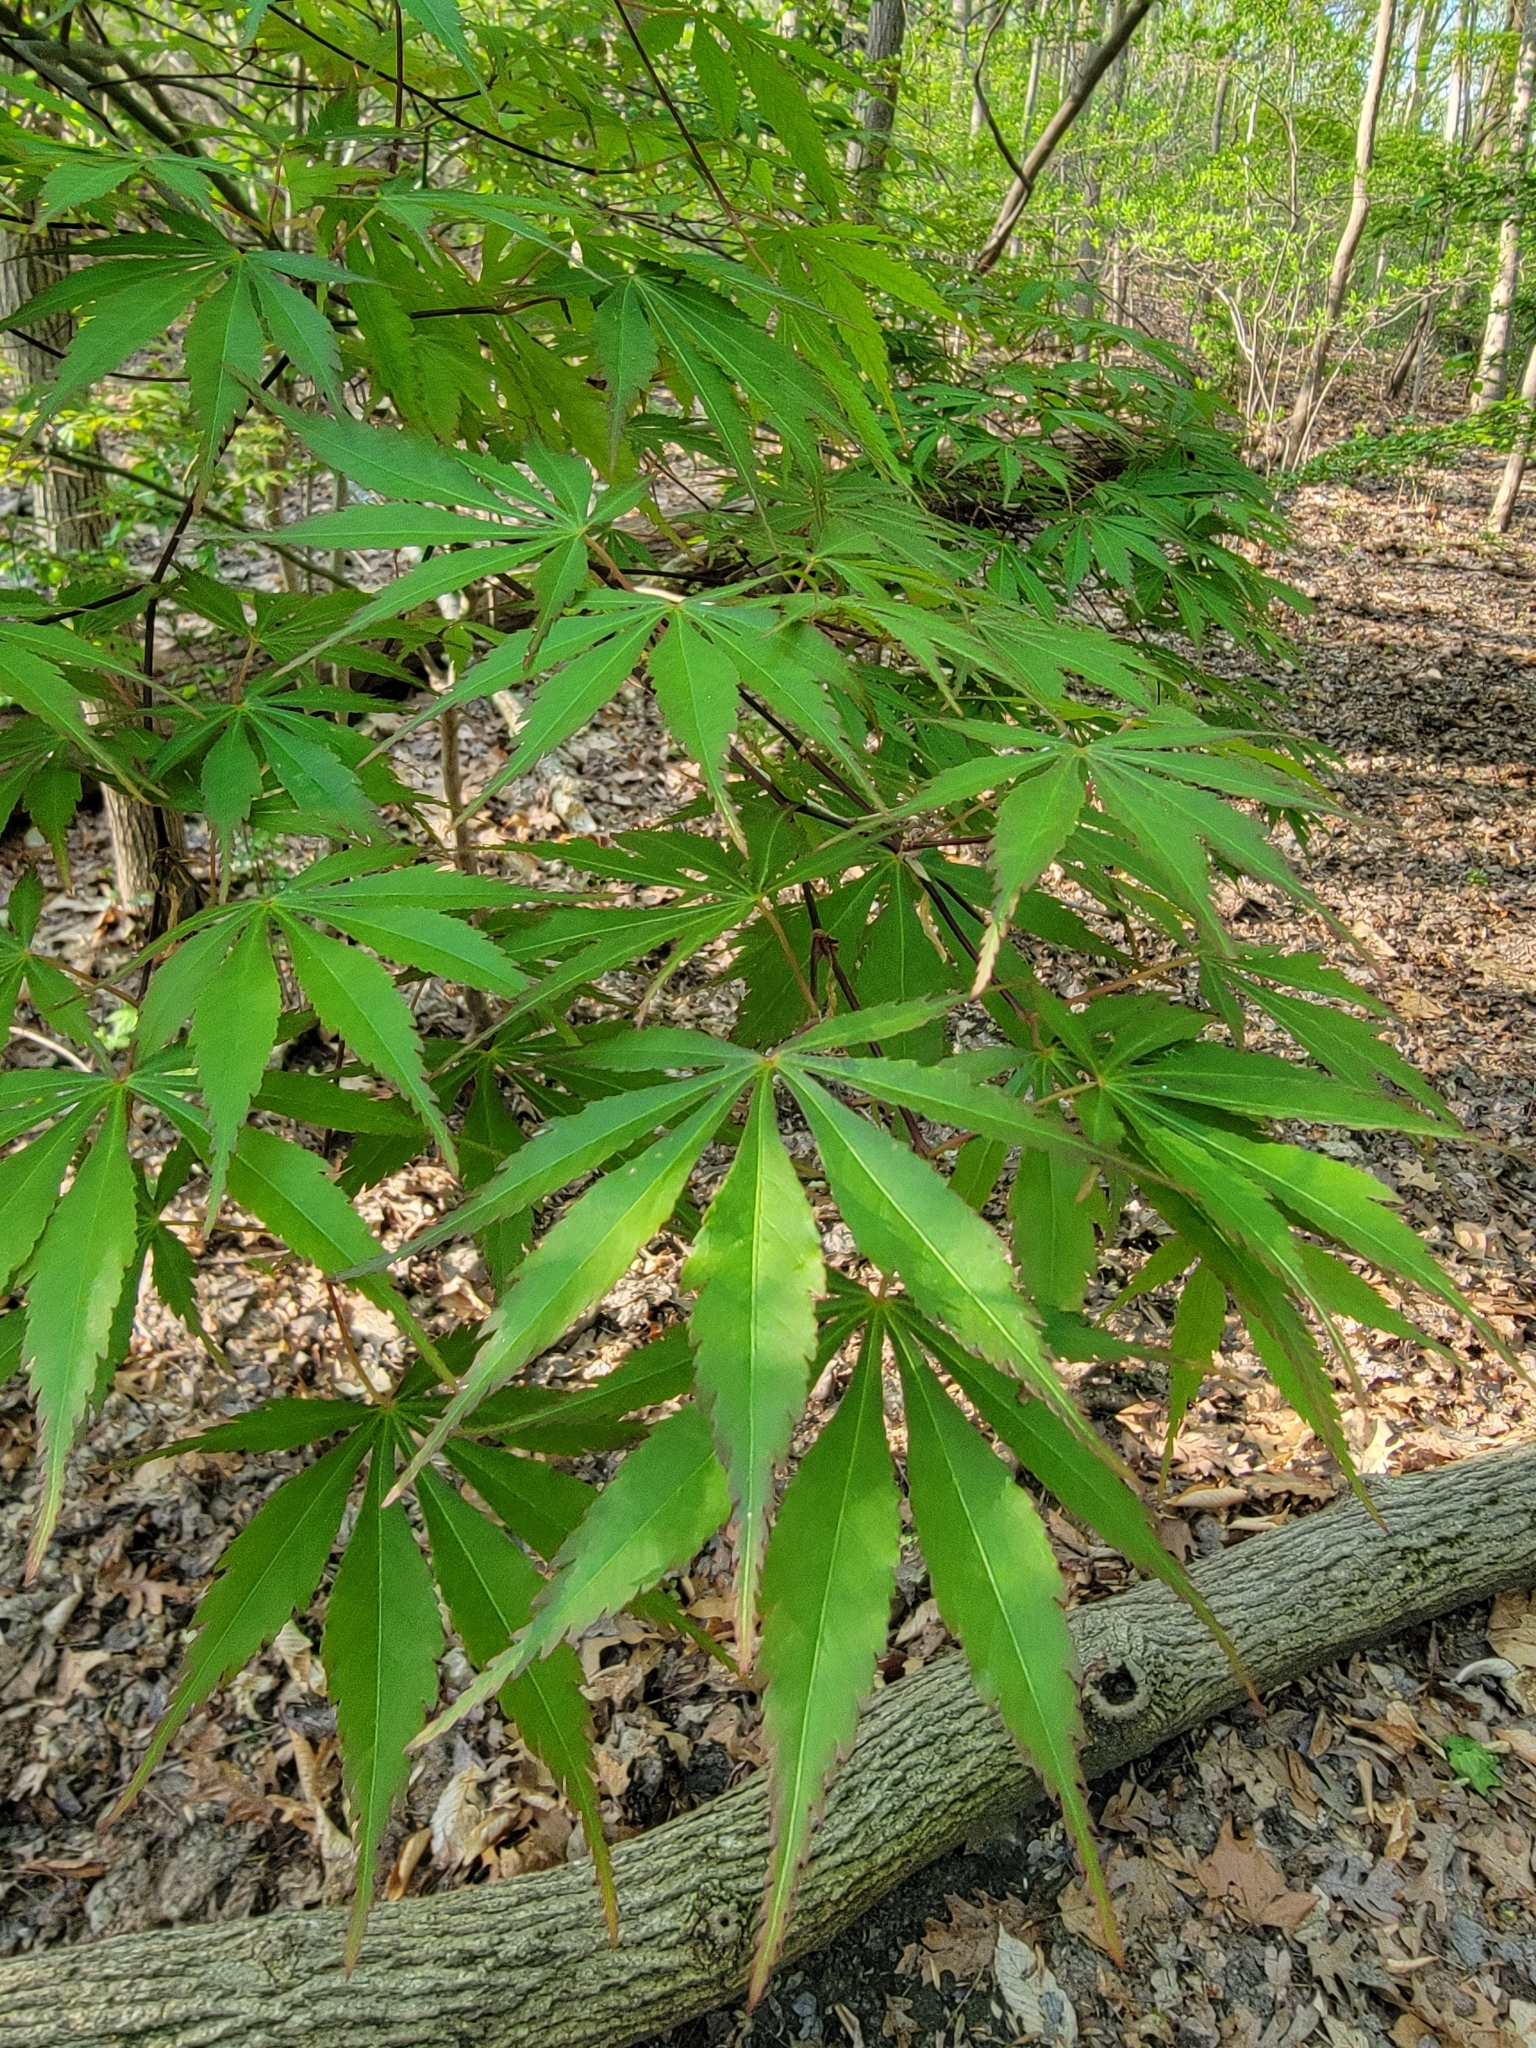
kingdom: Plantae
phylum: Tracheophyta
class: Magnoliopsida
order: Sapindales
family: Sapindaceae
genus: Acer
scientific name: Acer palmatum
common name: Japanese maple
